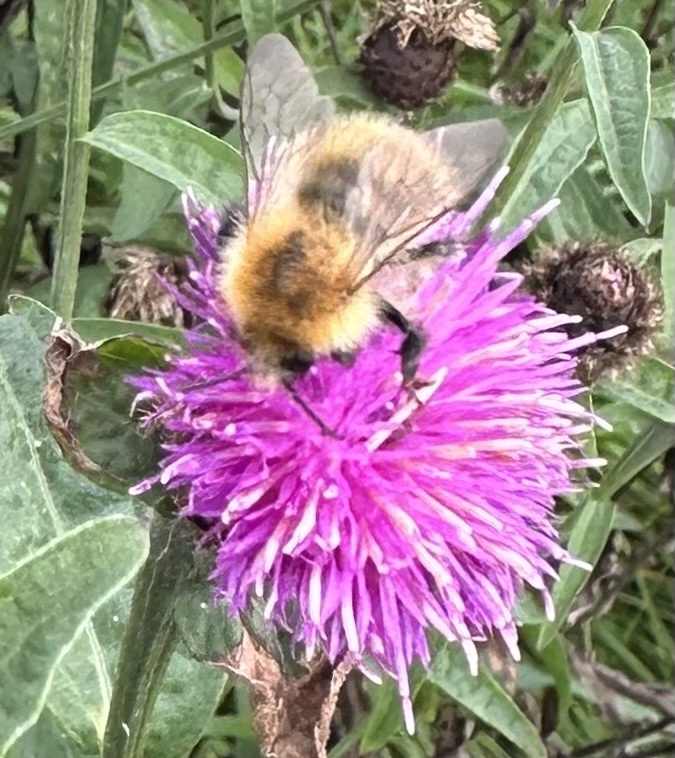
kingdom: Animalia
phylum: Arthropoda
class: Insecta
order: Hymenoptera
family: Apidae
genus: Bombus
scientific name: Bombus pascuorum
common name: Common carder bee
